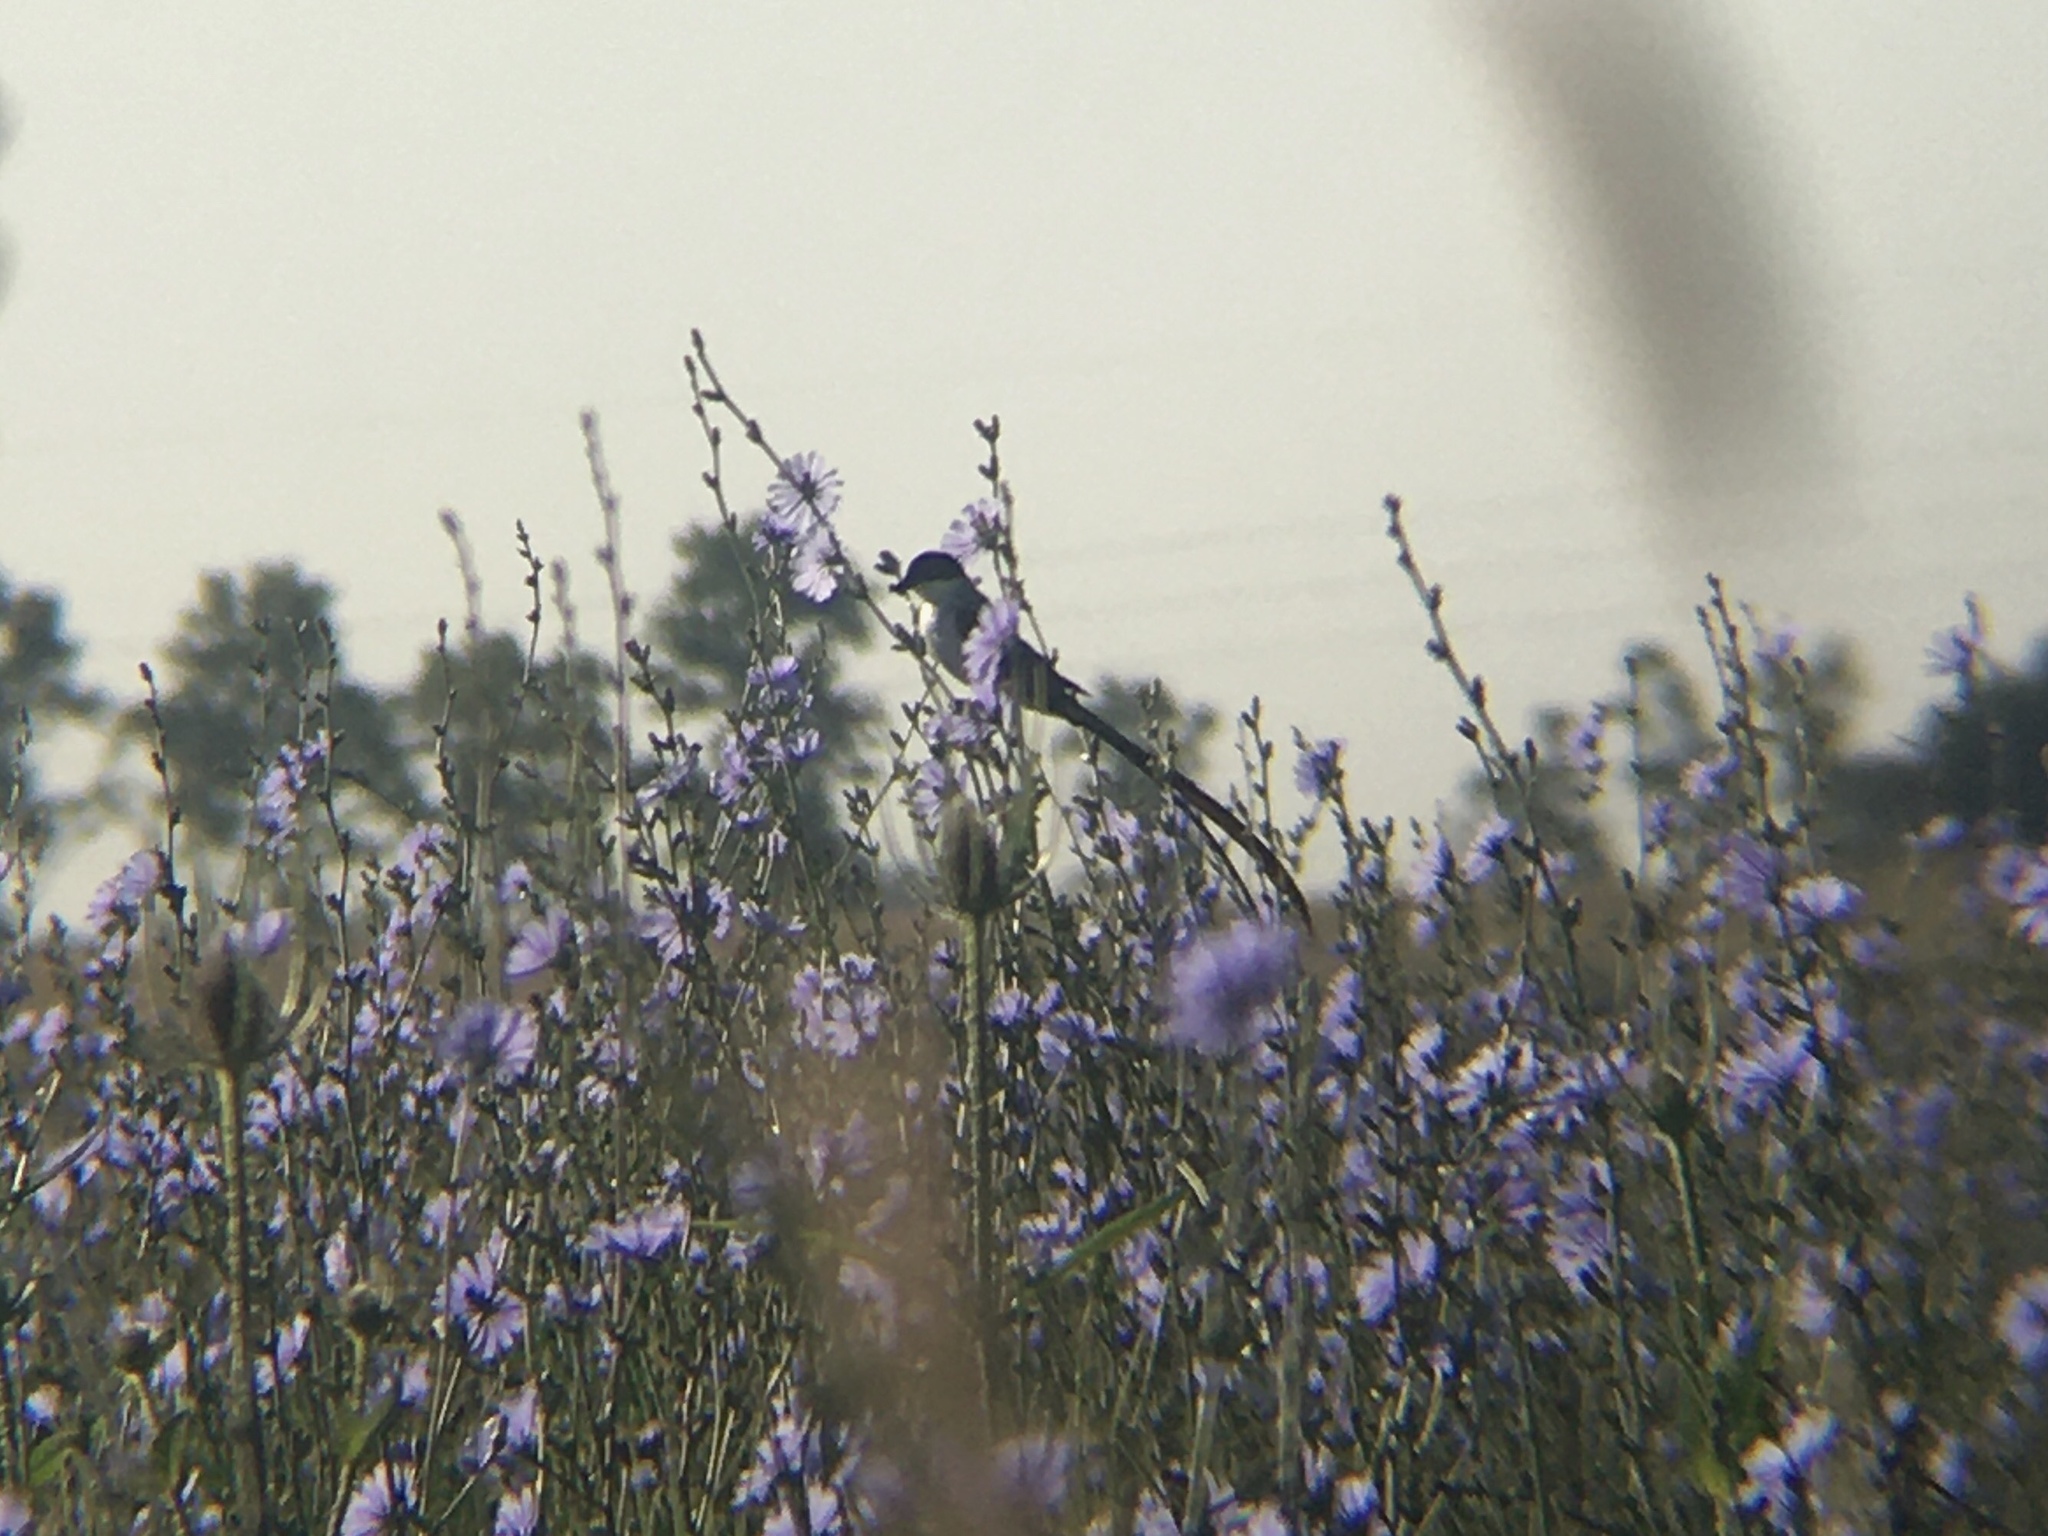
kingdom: Animalia
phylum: Chordata
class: Aves
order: Passeriformes
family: Tyrannidae
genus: Tyrannus
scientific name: Tyrannus savana
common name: Fork-tailed flycatcher
